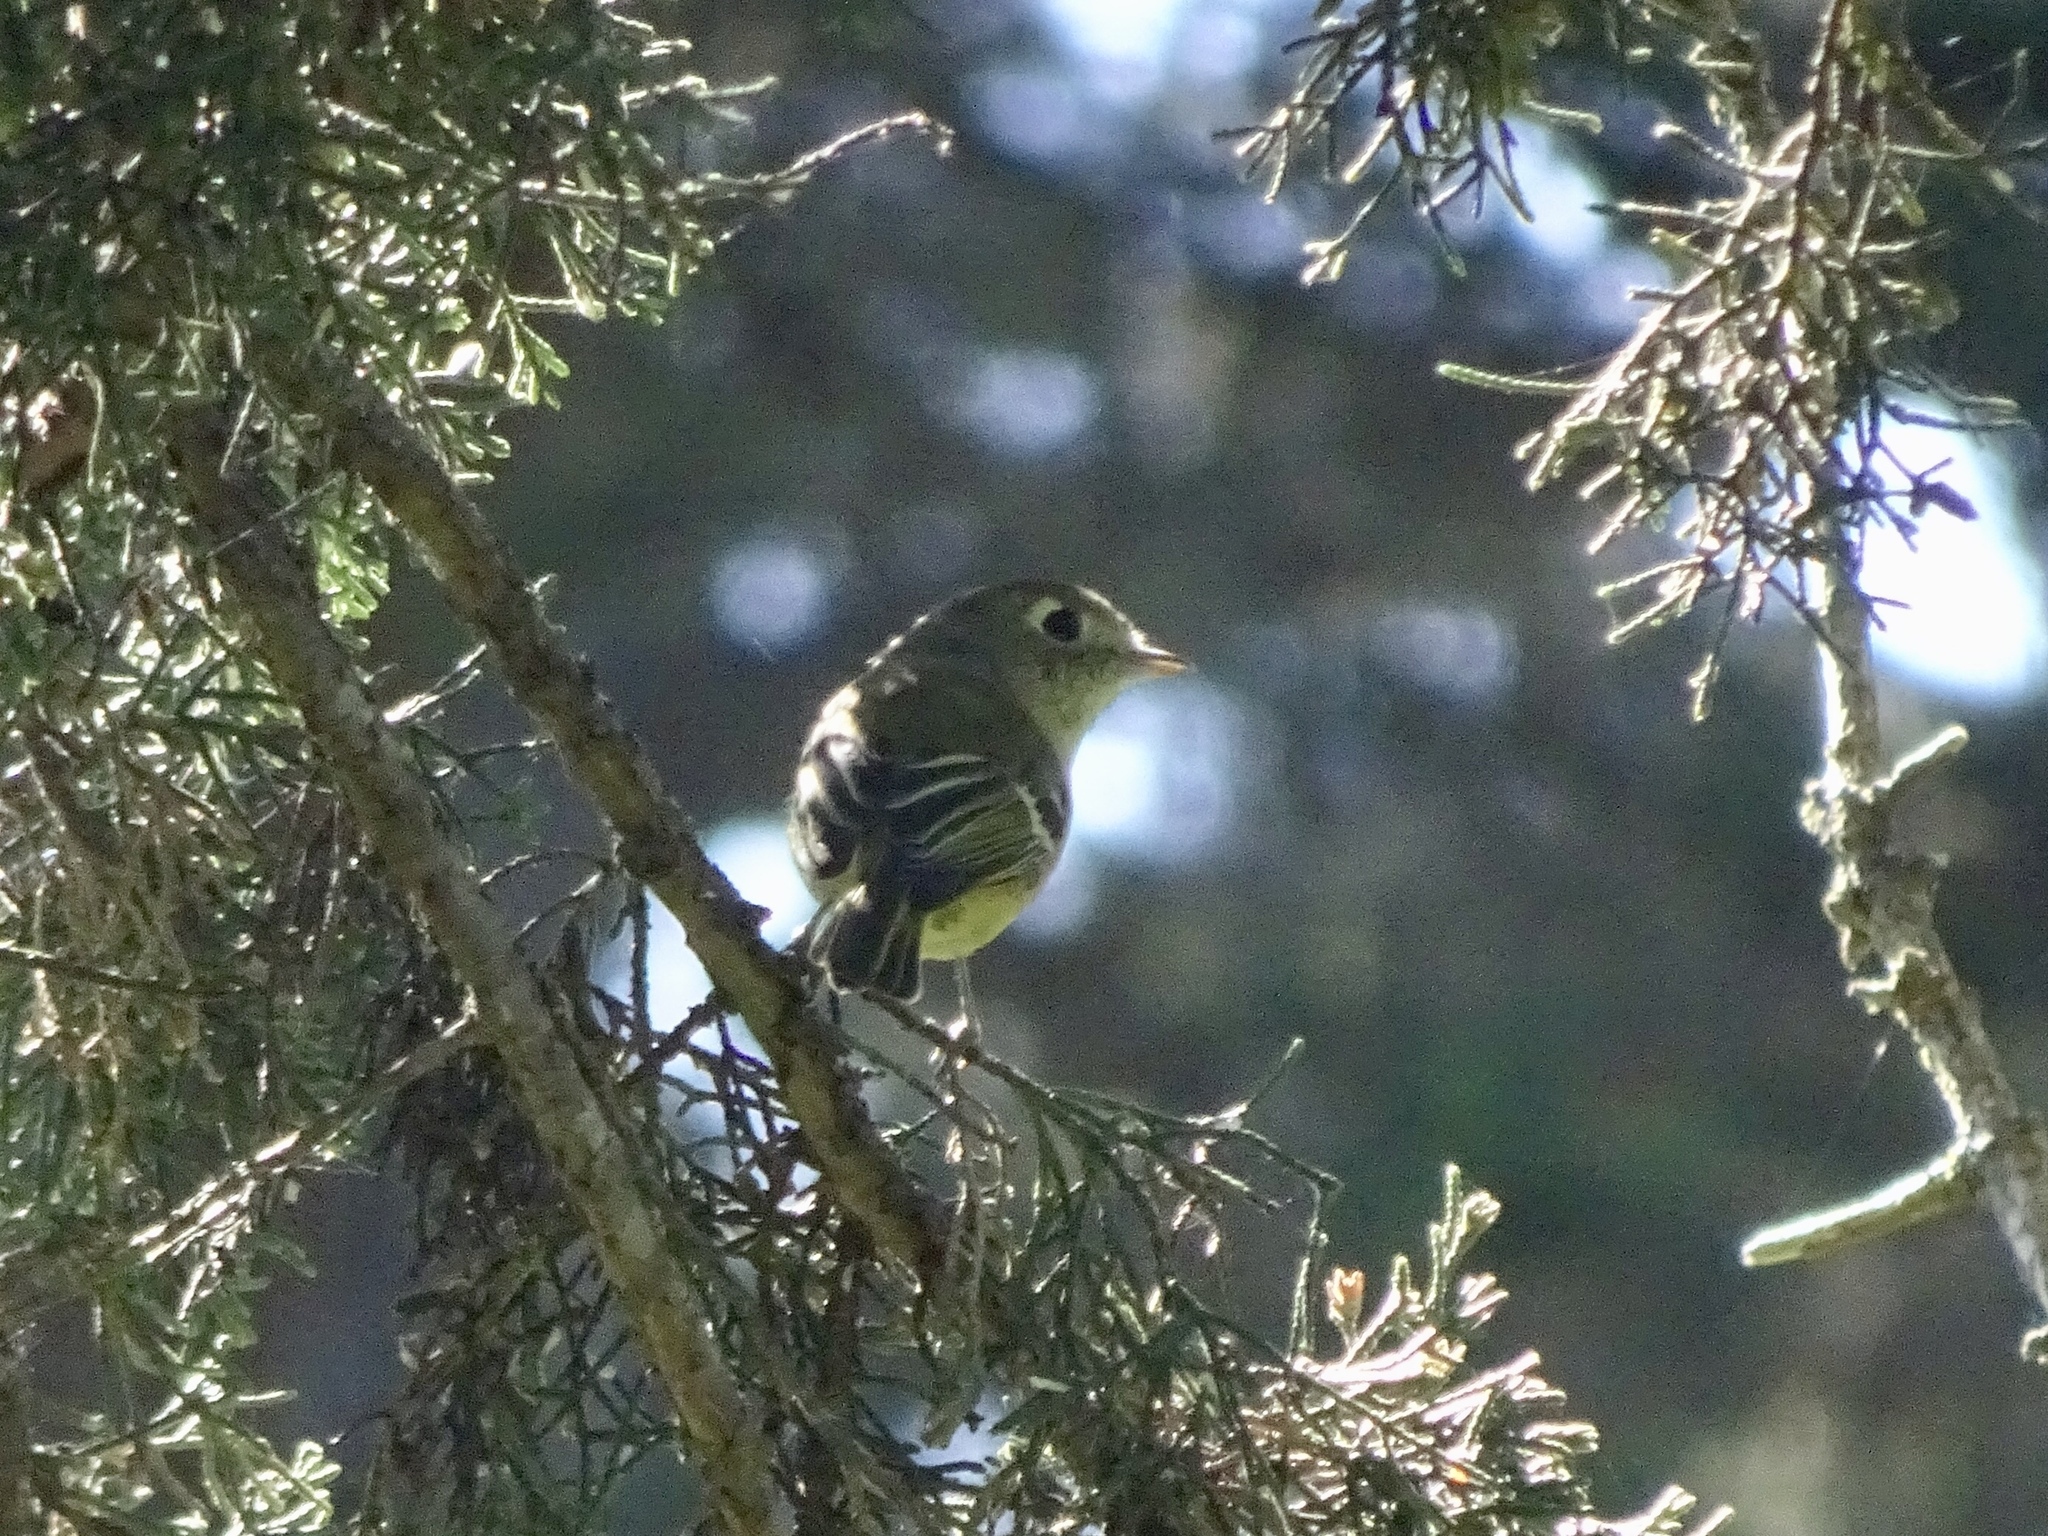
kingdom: Animalia
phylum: Chordata
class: Aves
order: Passeriformes
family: Vireonidae
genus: Vireo
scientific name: Vireo huttoni
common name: Hutton's vireo
